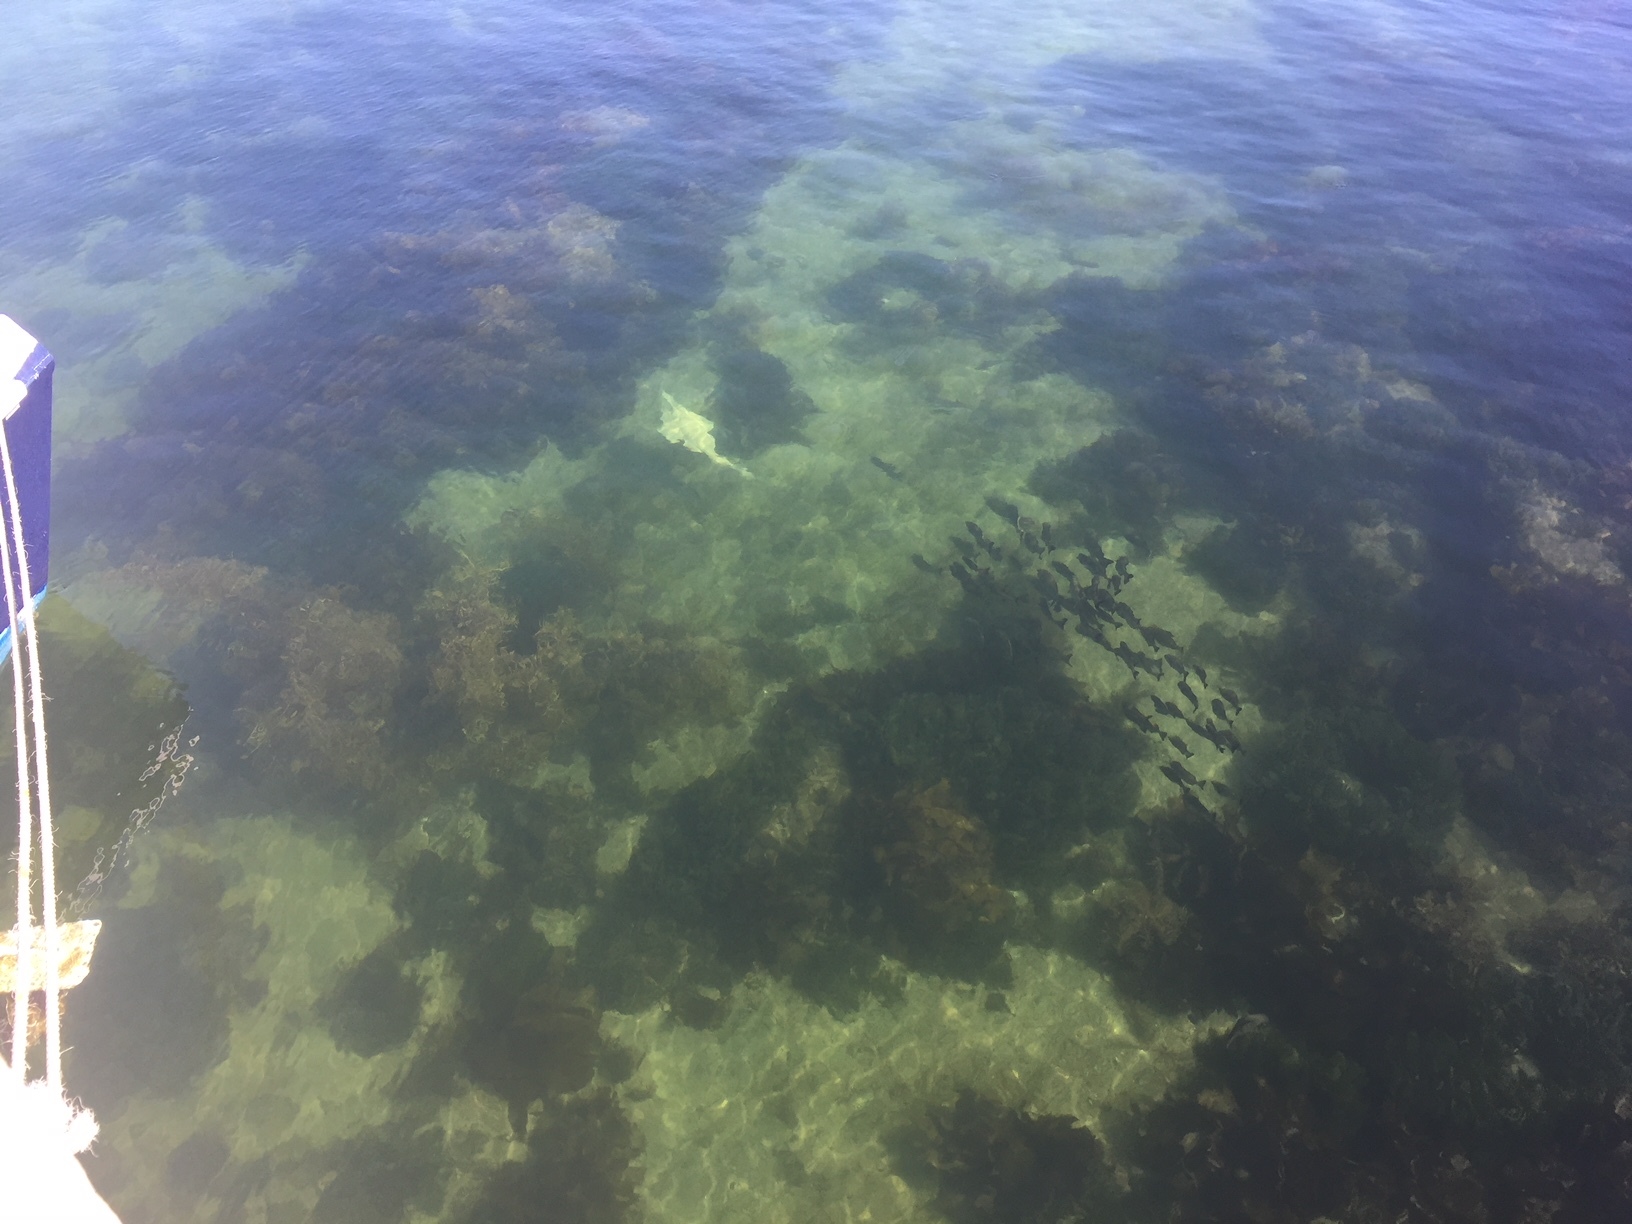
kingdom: Animalia
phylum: Chordata
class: Elasmobranchii
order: Rhinopristiformes
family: Rhinobatidae
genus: Aptychotrema
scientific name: Aptychotrema vincentiana
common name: Western shovelnose ray
